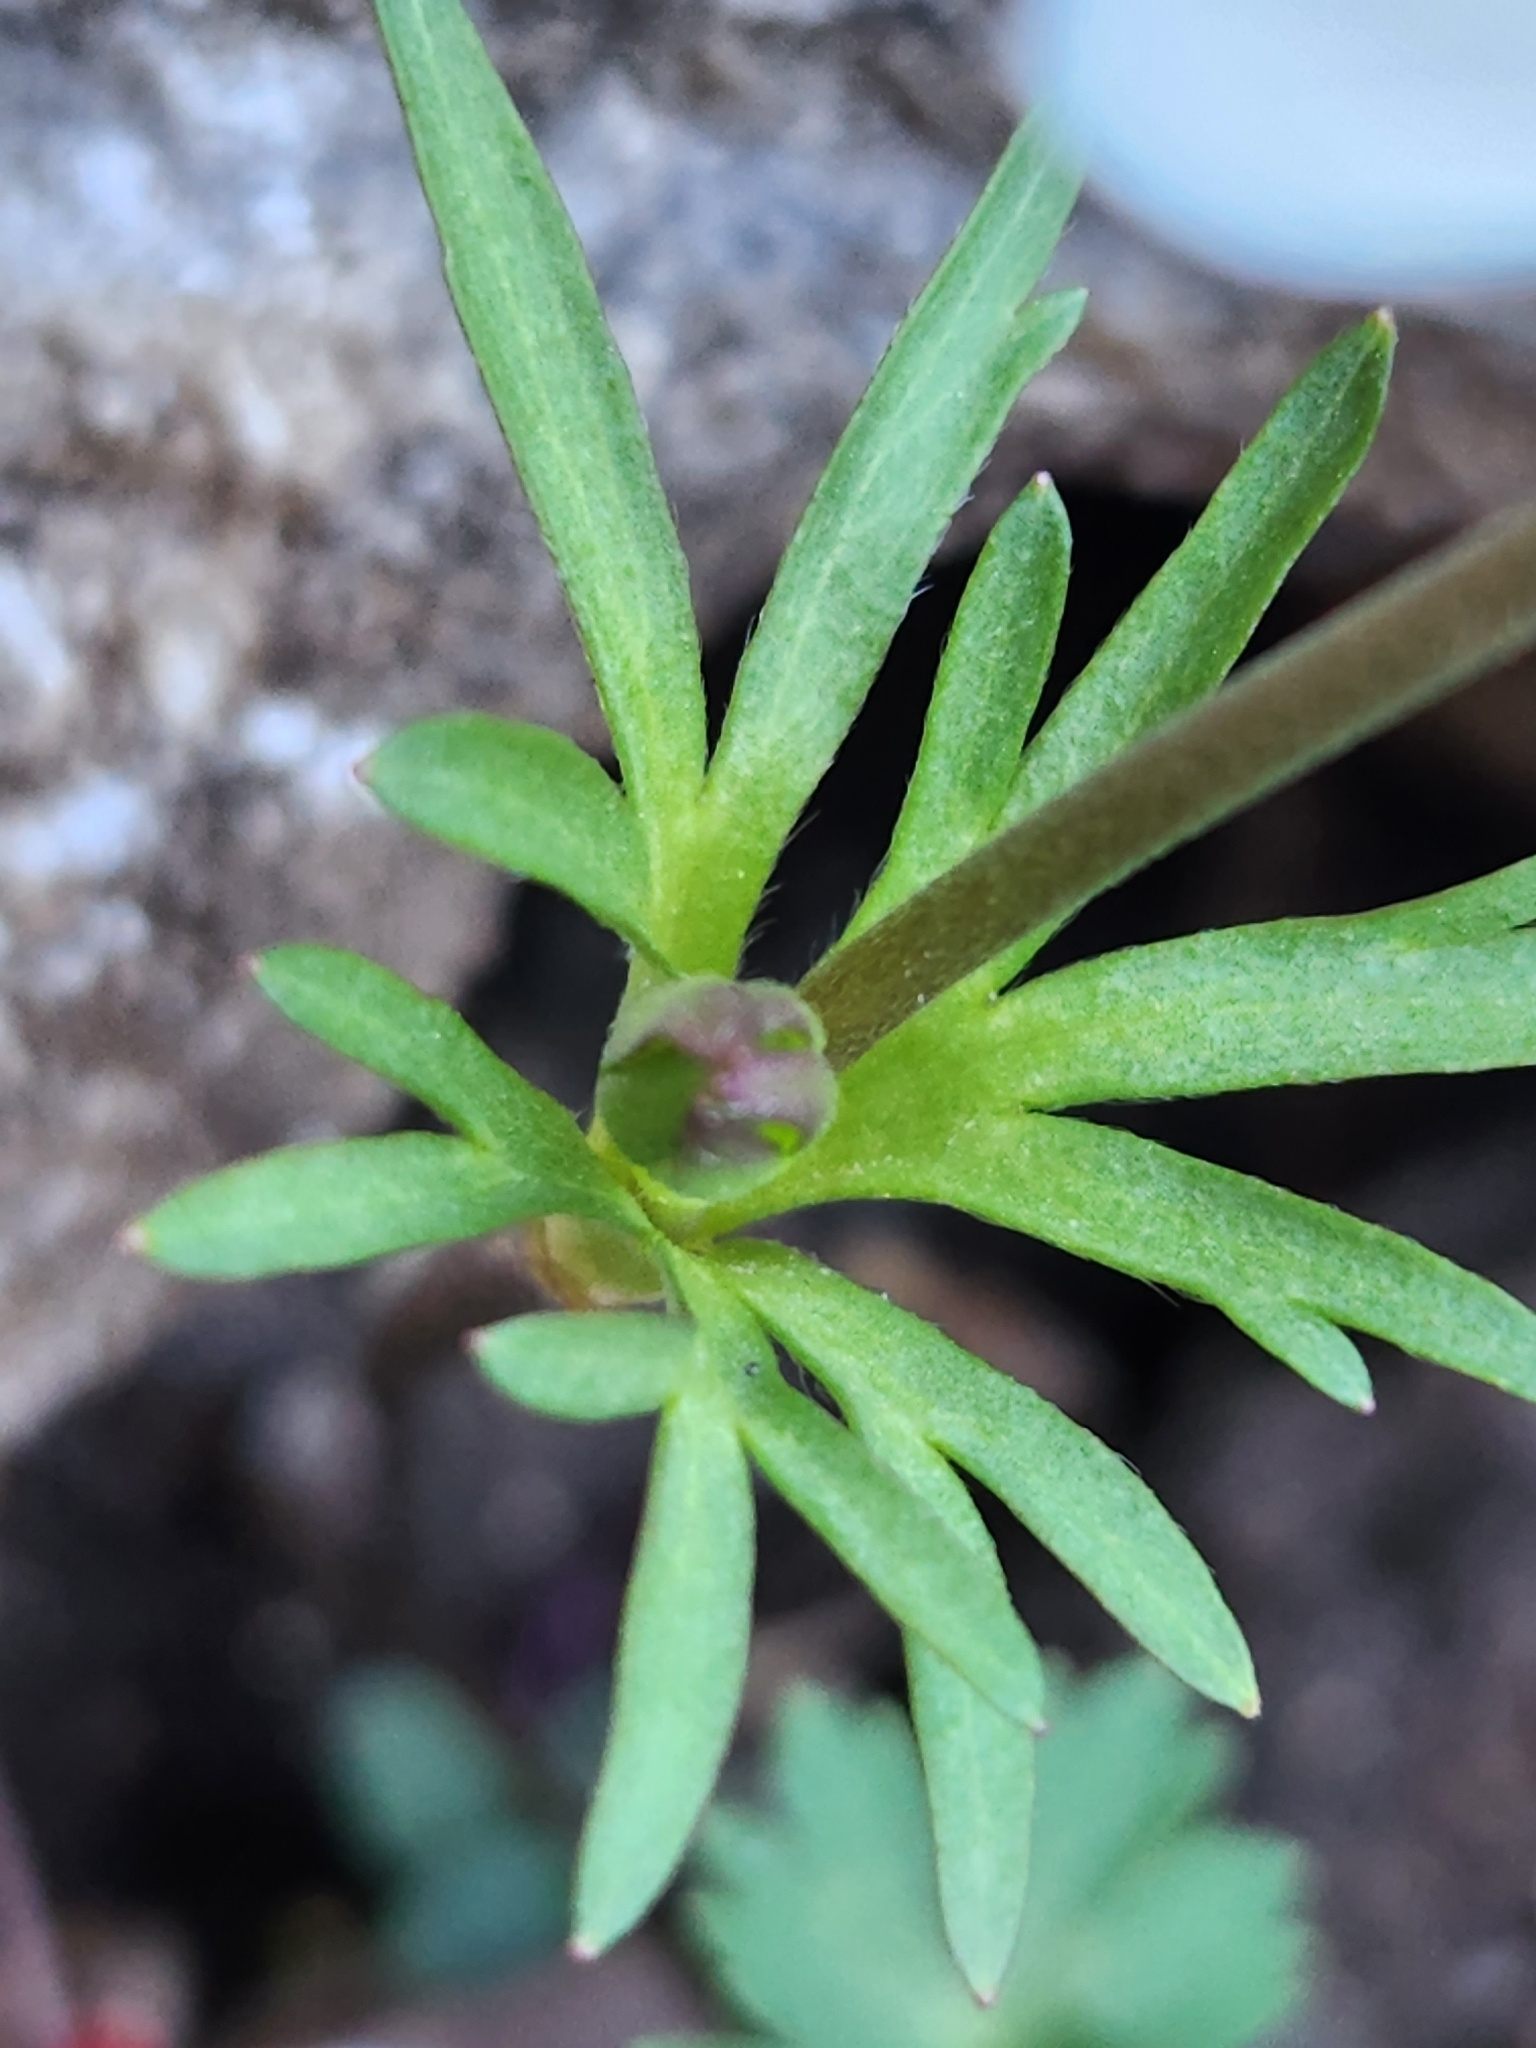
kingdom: Plantae
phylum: Tracheophyta
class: Magnoliopsida
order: Ranunculales
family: Ranunculaceae
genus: Anemone
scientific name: Anemone edwardsiana
